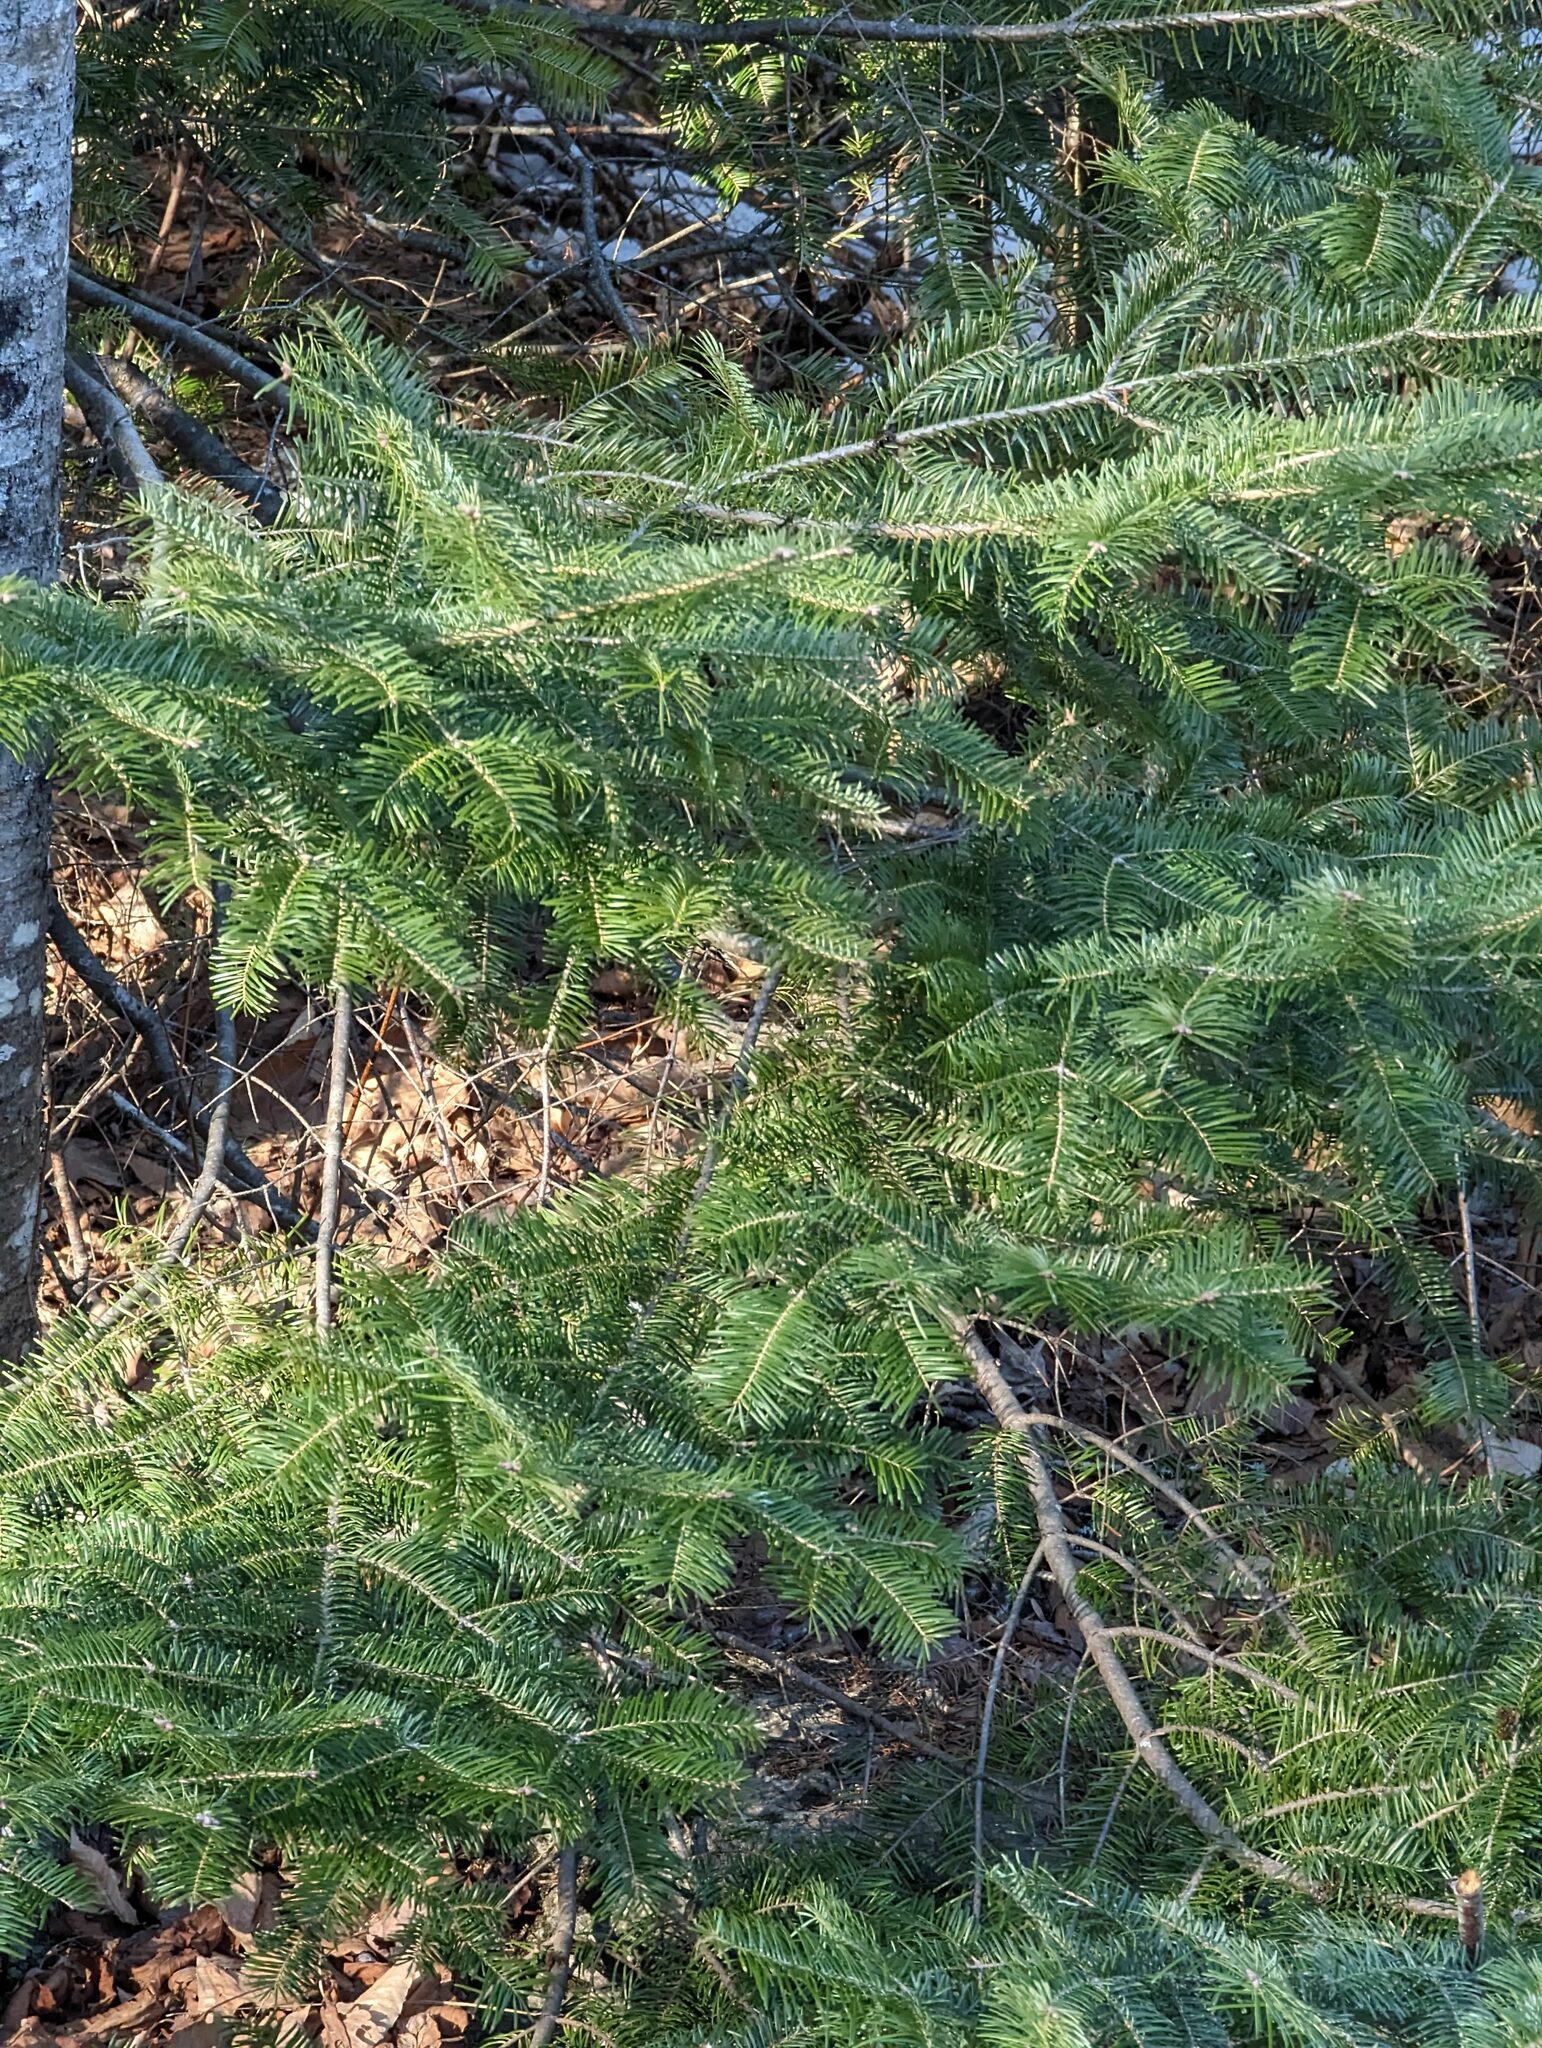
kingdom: Plantae
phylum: Tracheophyta
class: Pinopsida
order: Pinales
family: Pinaceae
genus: Abies
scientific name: Abies balsamea
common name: Balsam fir
